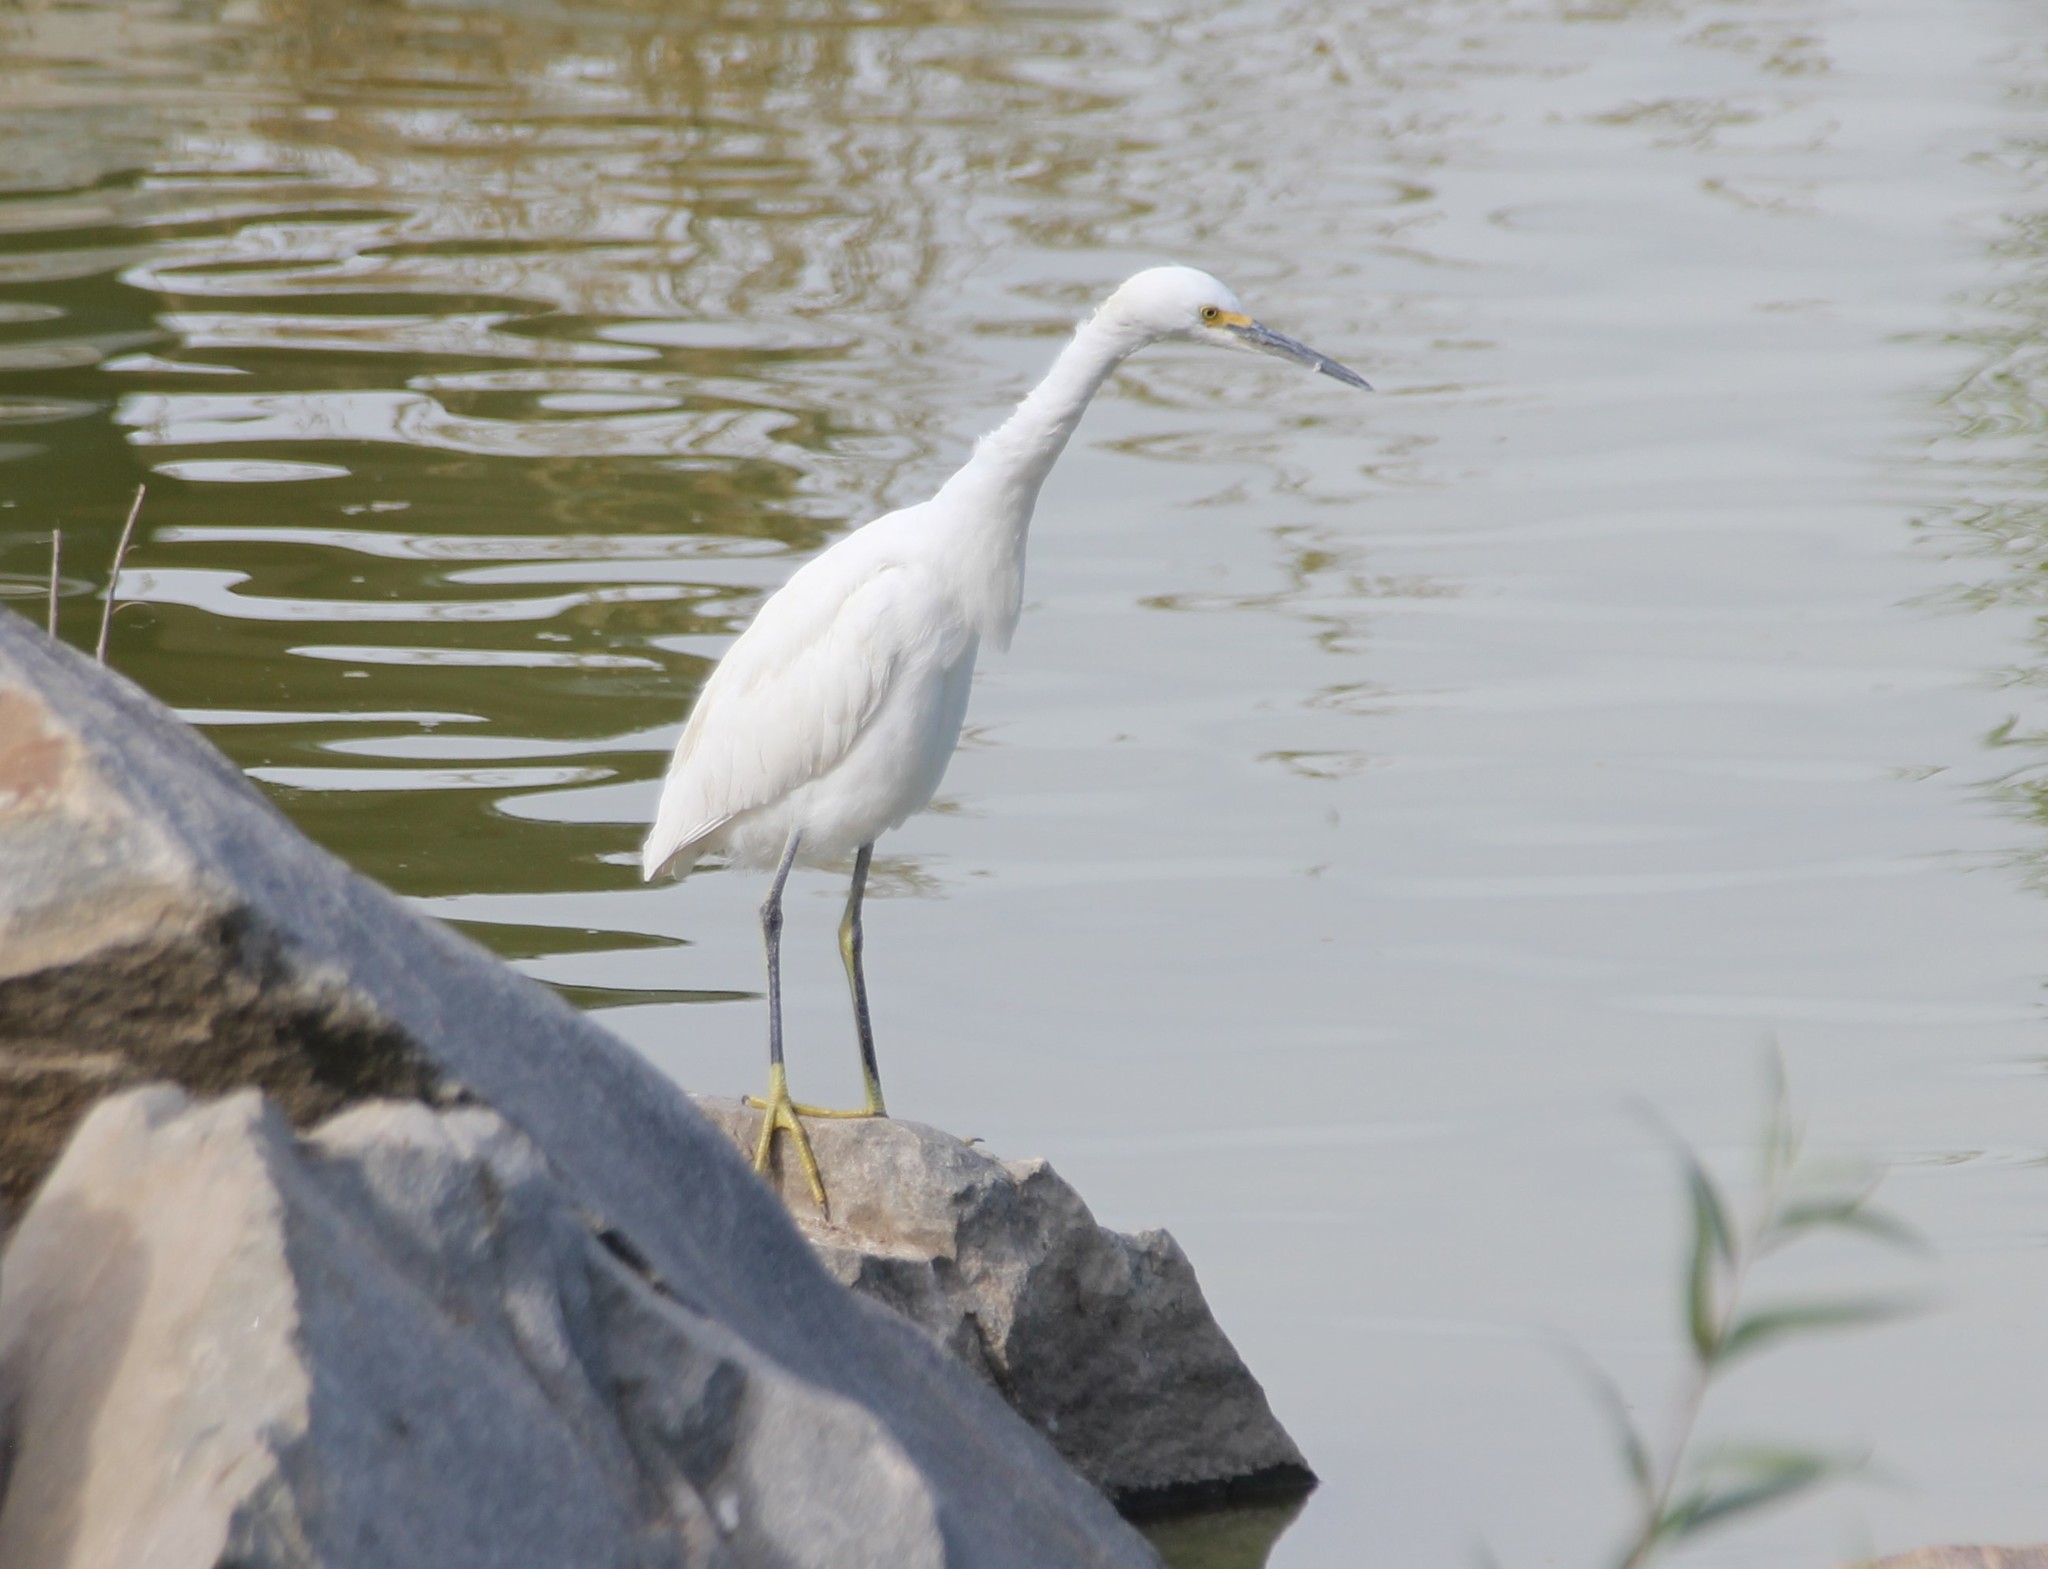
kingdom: Animalia
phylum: Chordata
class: Aves
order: Pelecaniformes
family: Ardeidae
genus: Egretta
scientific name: Egretta thula
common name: Snowy egret
